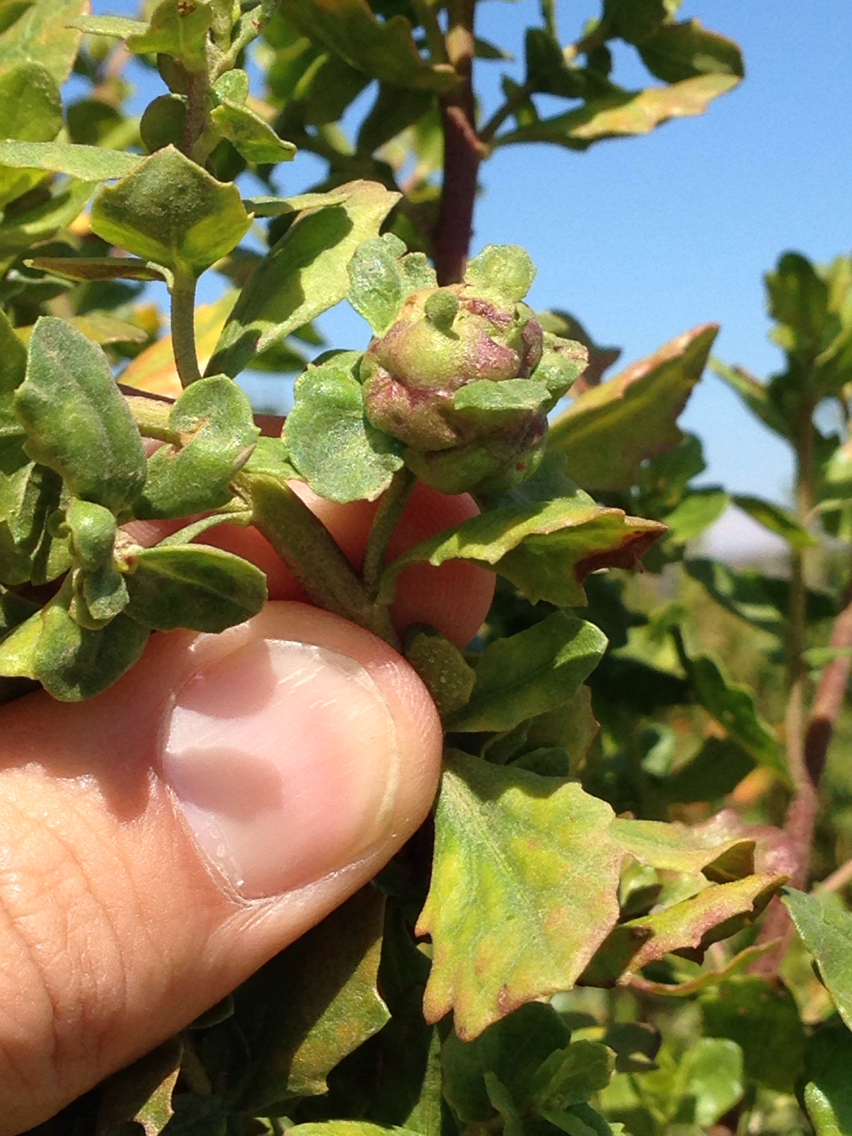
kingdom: Animalia
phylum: Arthropoda
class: Insecta
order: Diptera
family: Cecidomyiidae
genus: Rhopalomyia
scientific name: Rhopalomyia californica
